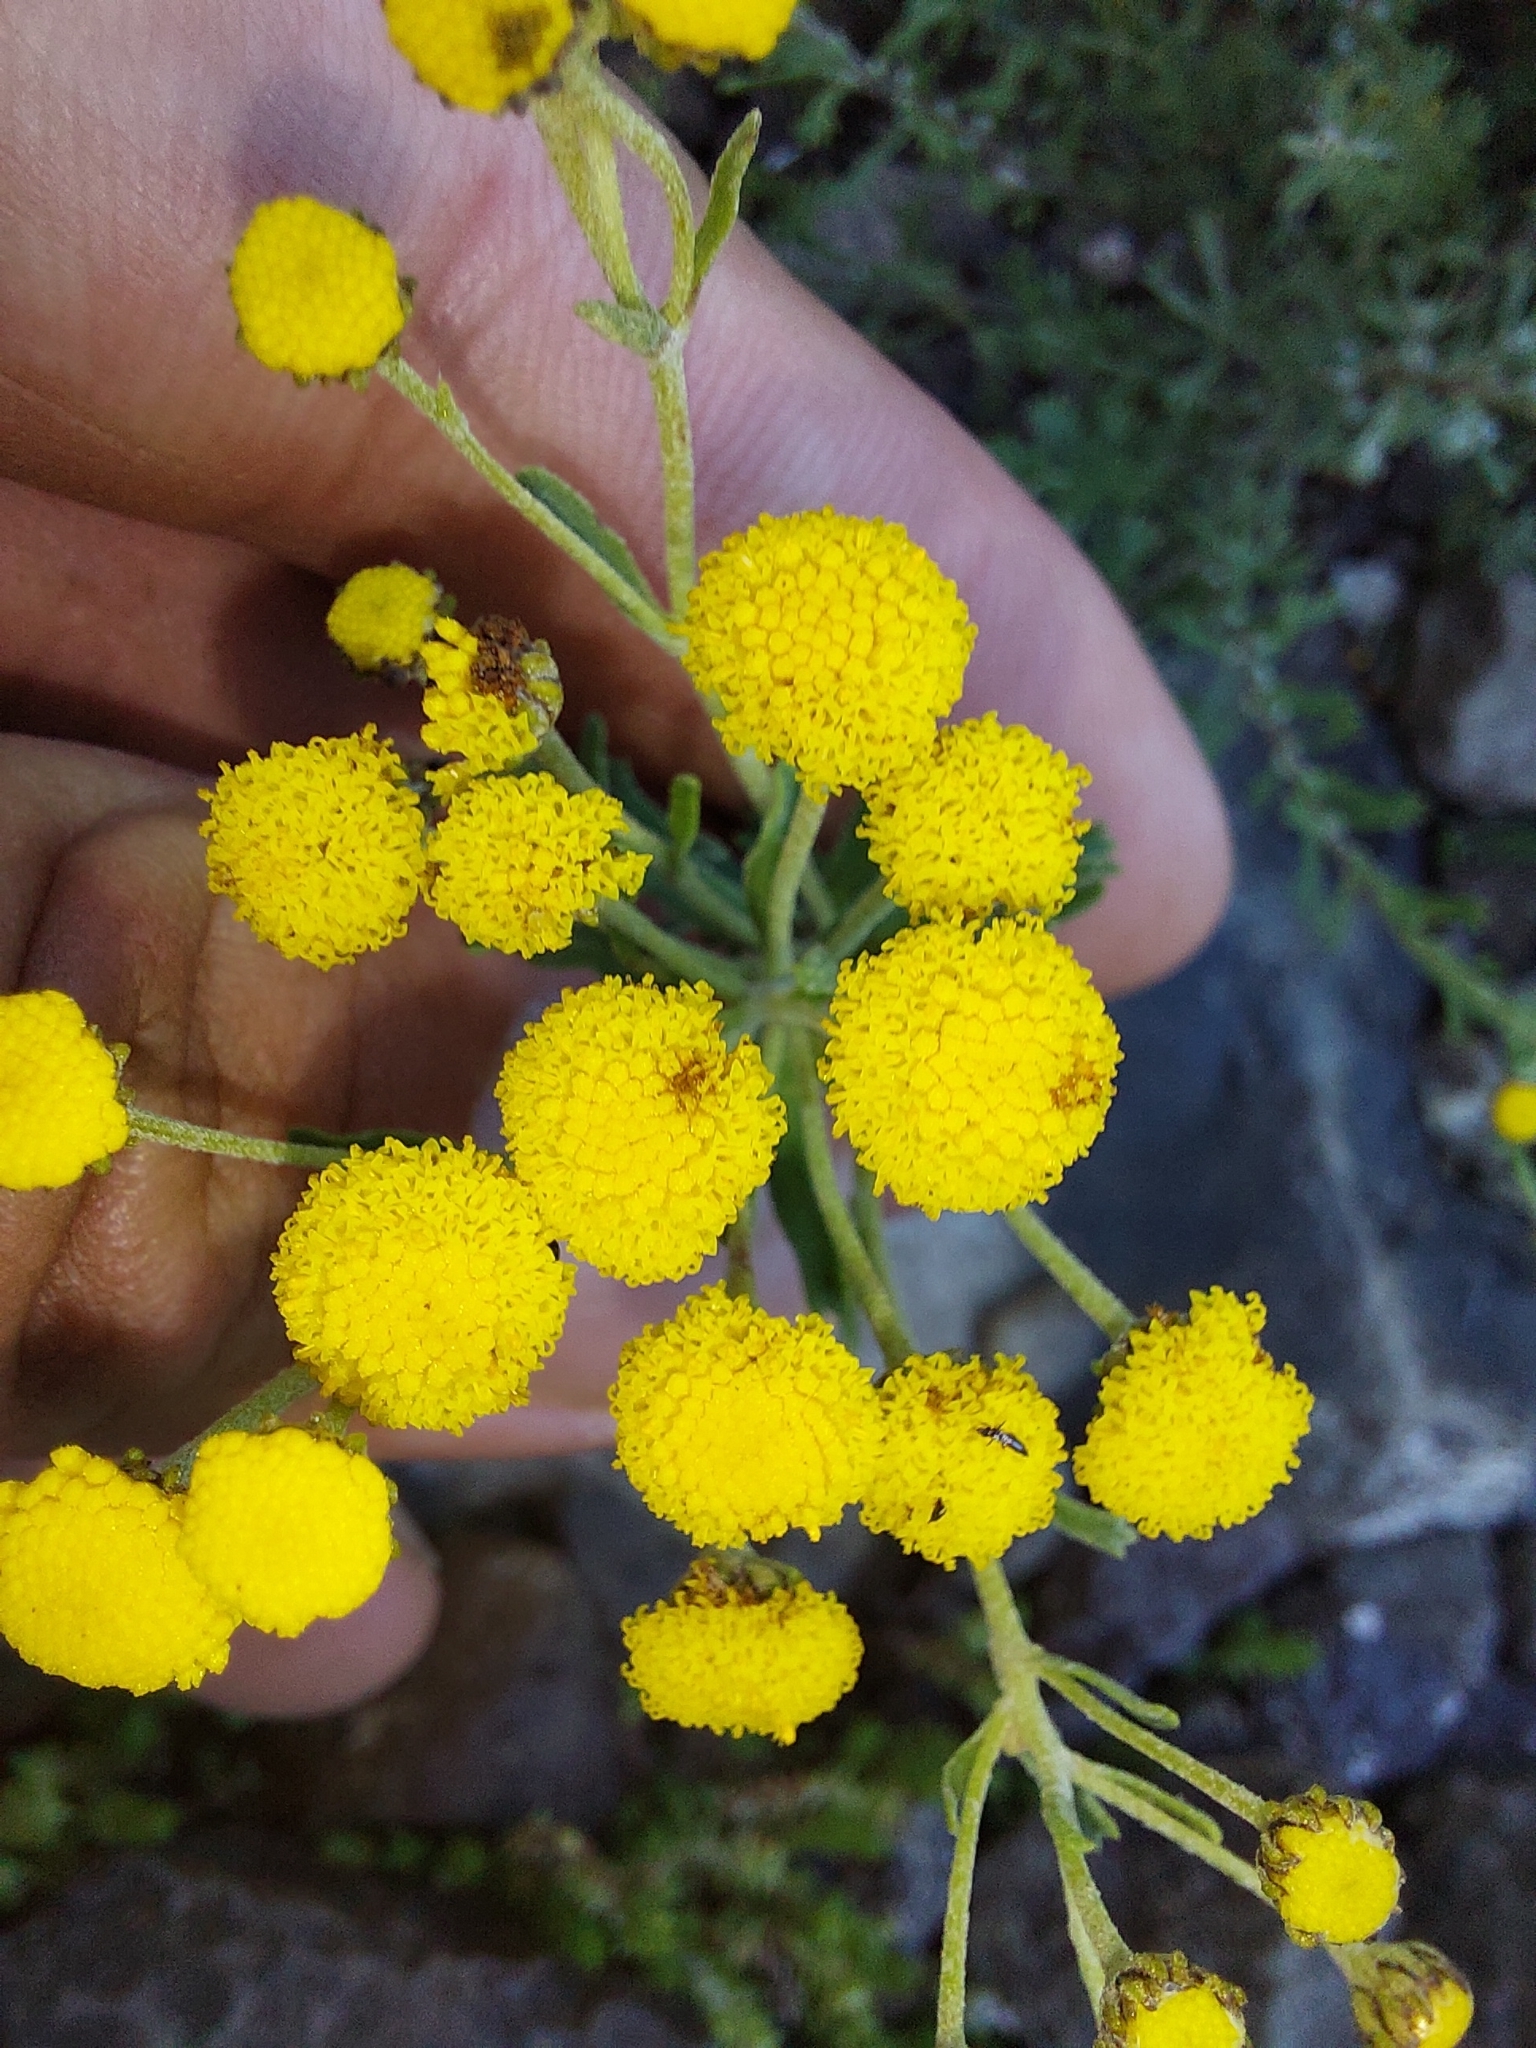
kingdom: Plantae
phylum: Tracheophyta
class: Magnoliopsida
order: Asterales
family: Asteraceae
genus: Pentzia
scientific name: Pentzia cooperi
